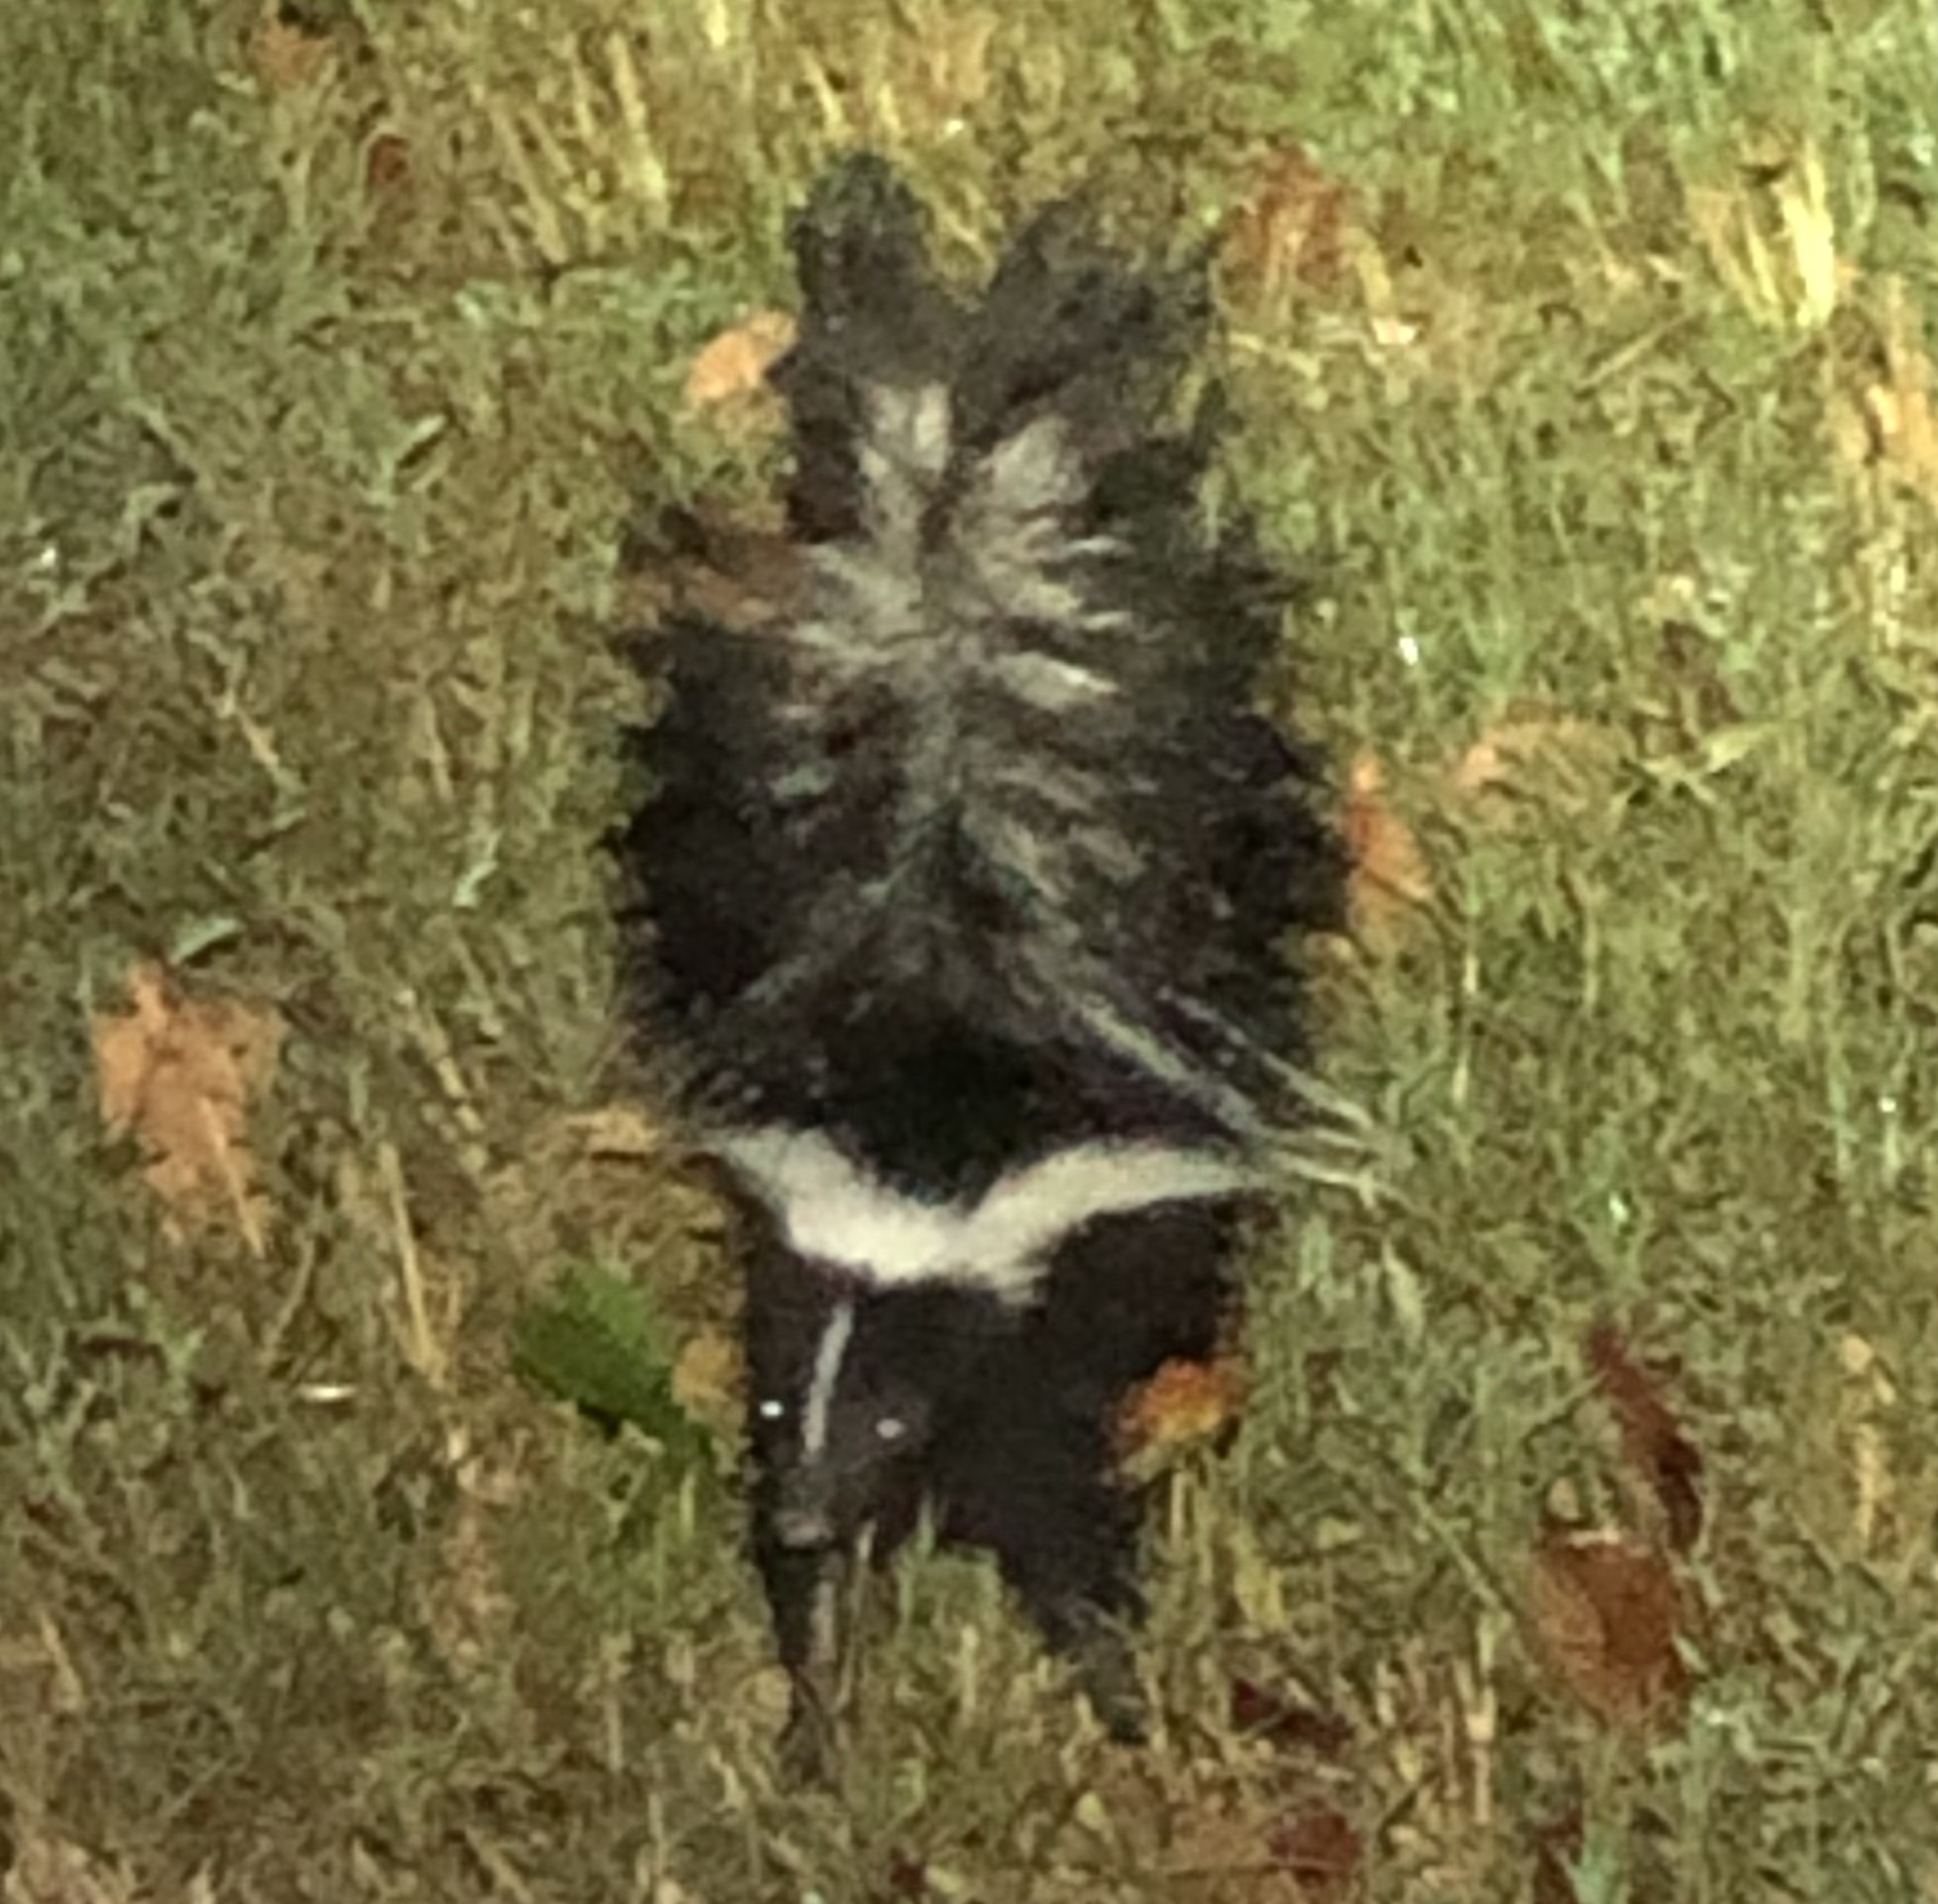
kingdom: Animalia
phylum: Chordata
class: Mammalia
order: Carnivora
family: Mephitidae
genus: Mephitis
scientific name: Mephitis mephitis
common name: Striped skunk
